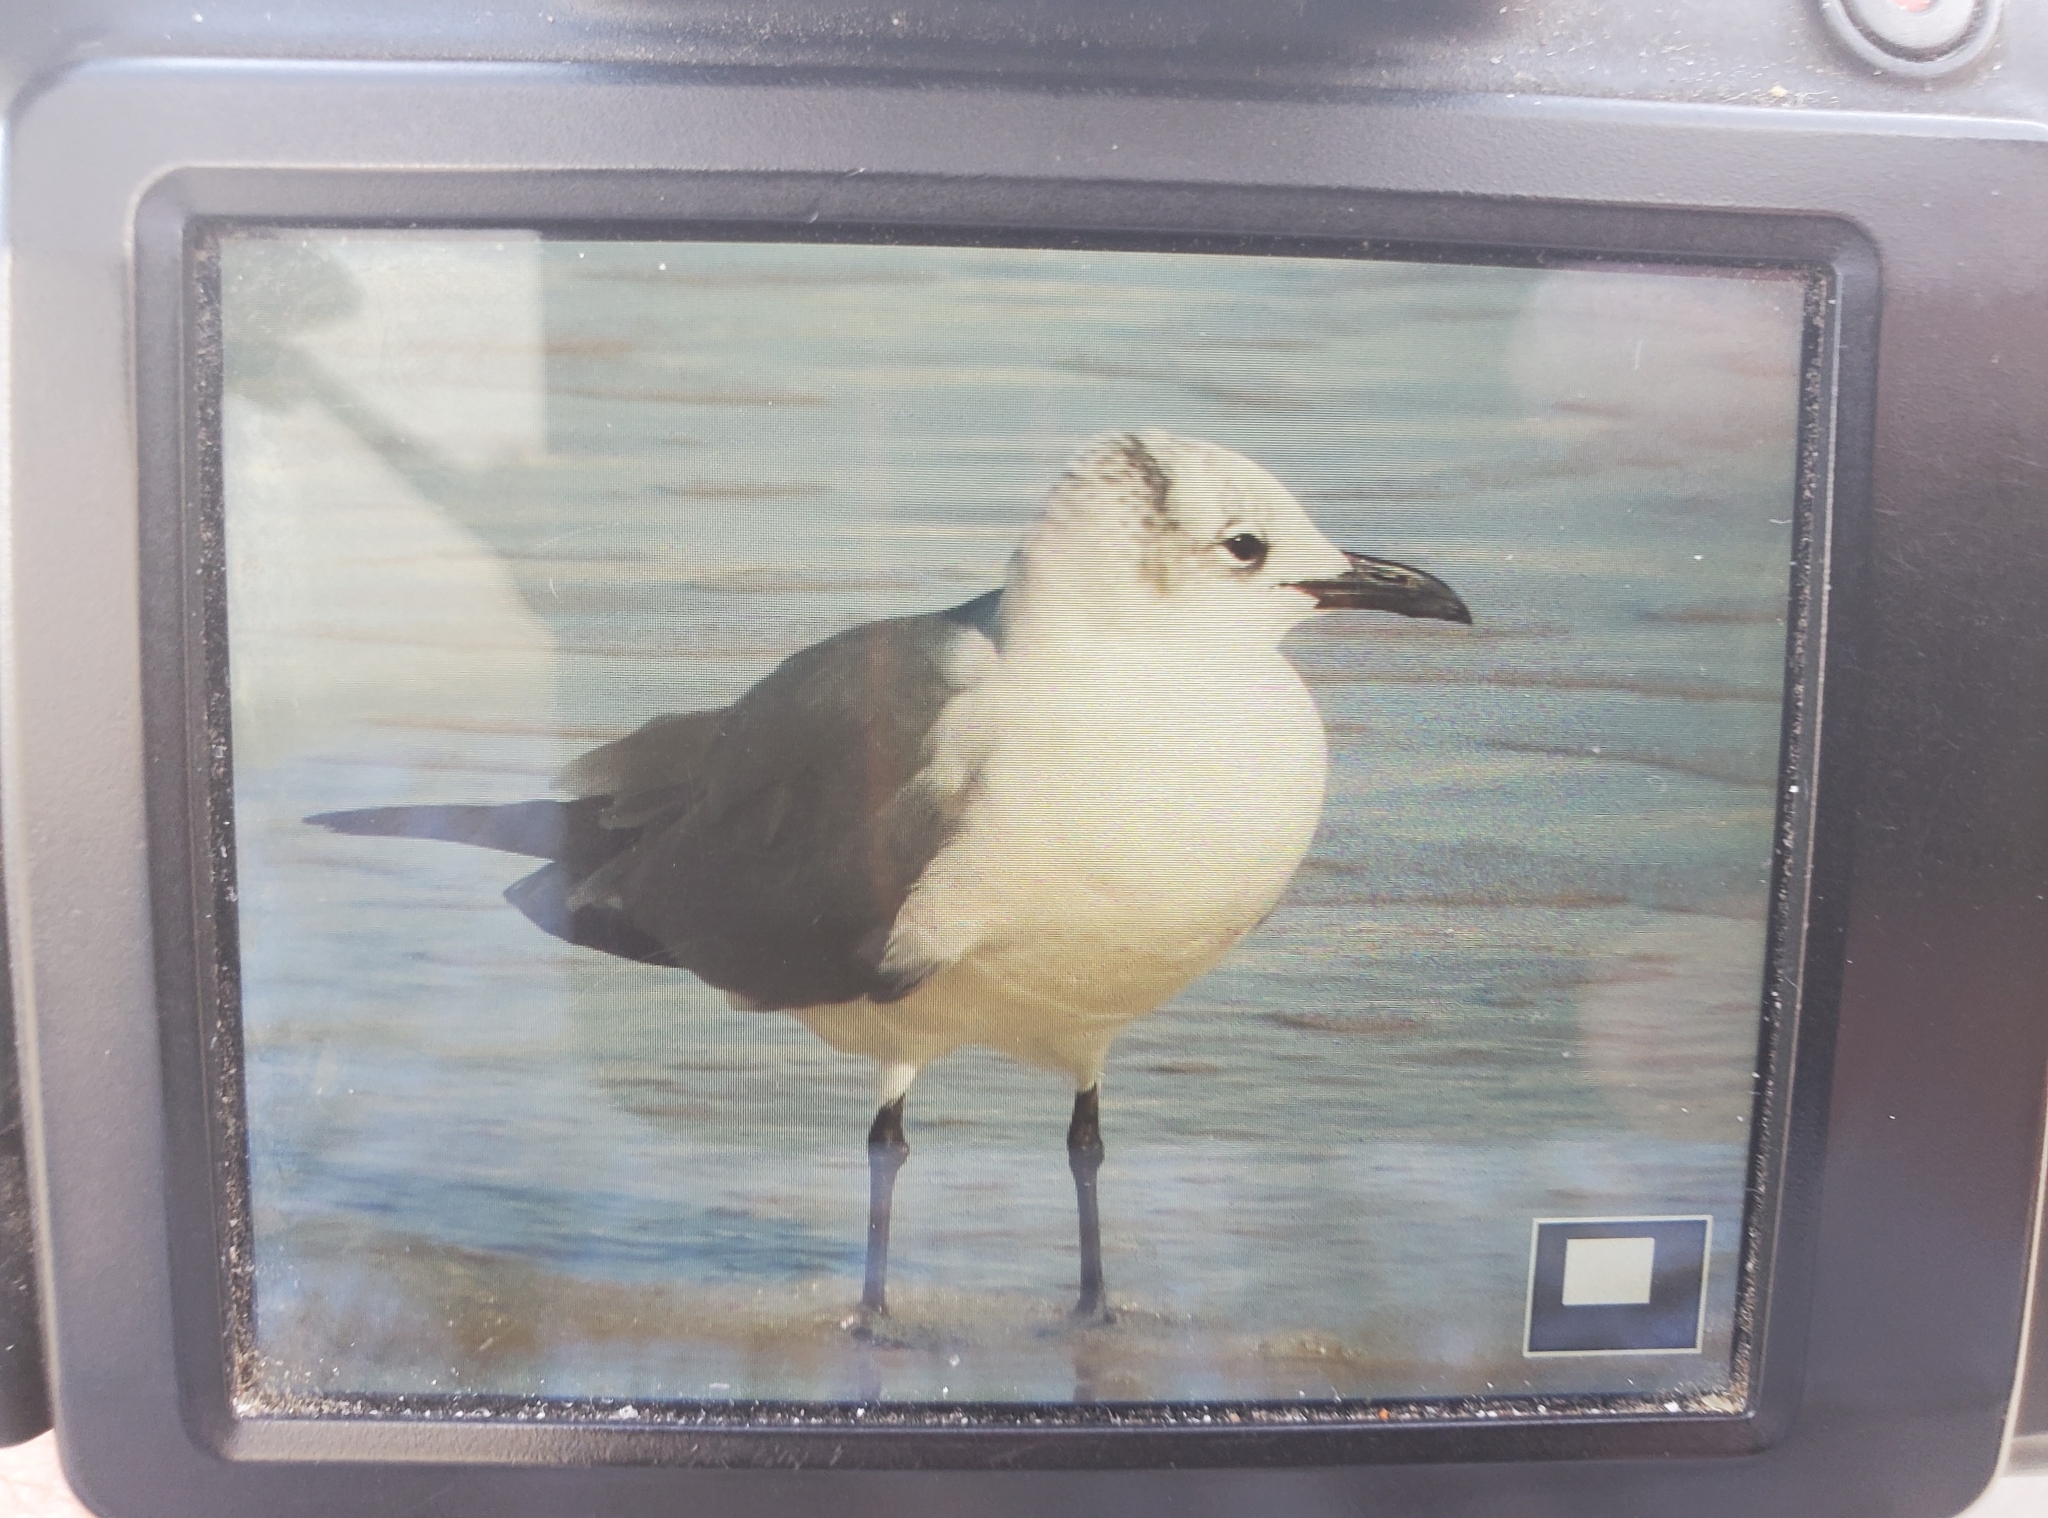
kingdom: Animalia
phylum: Chordata
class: Aves
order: Charadriiformes
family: Laridae
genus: Leucophaeus
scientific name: Leucophaeus atricilla
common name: Laughing gull
